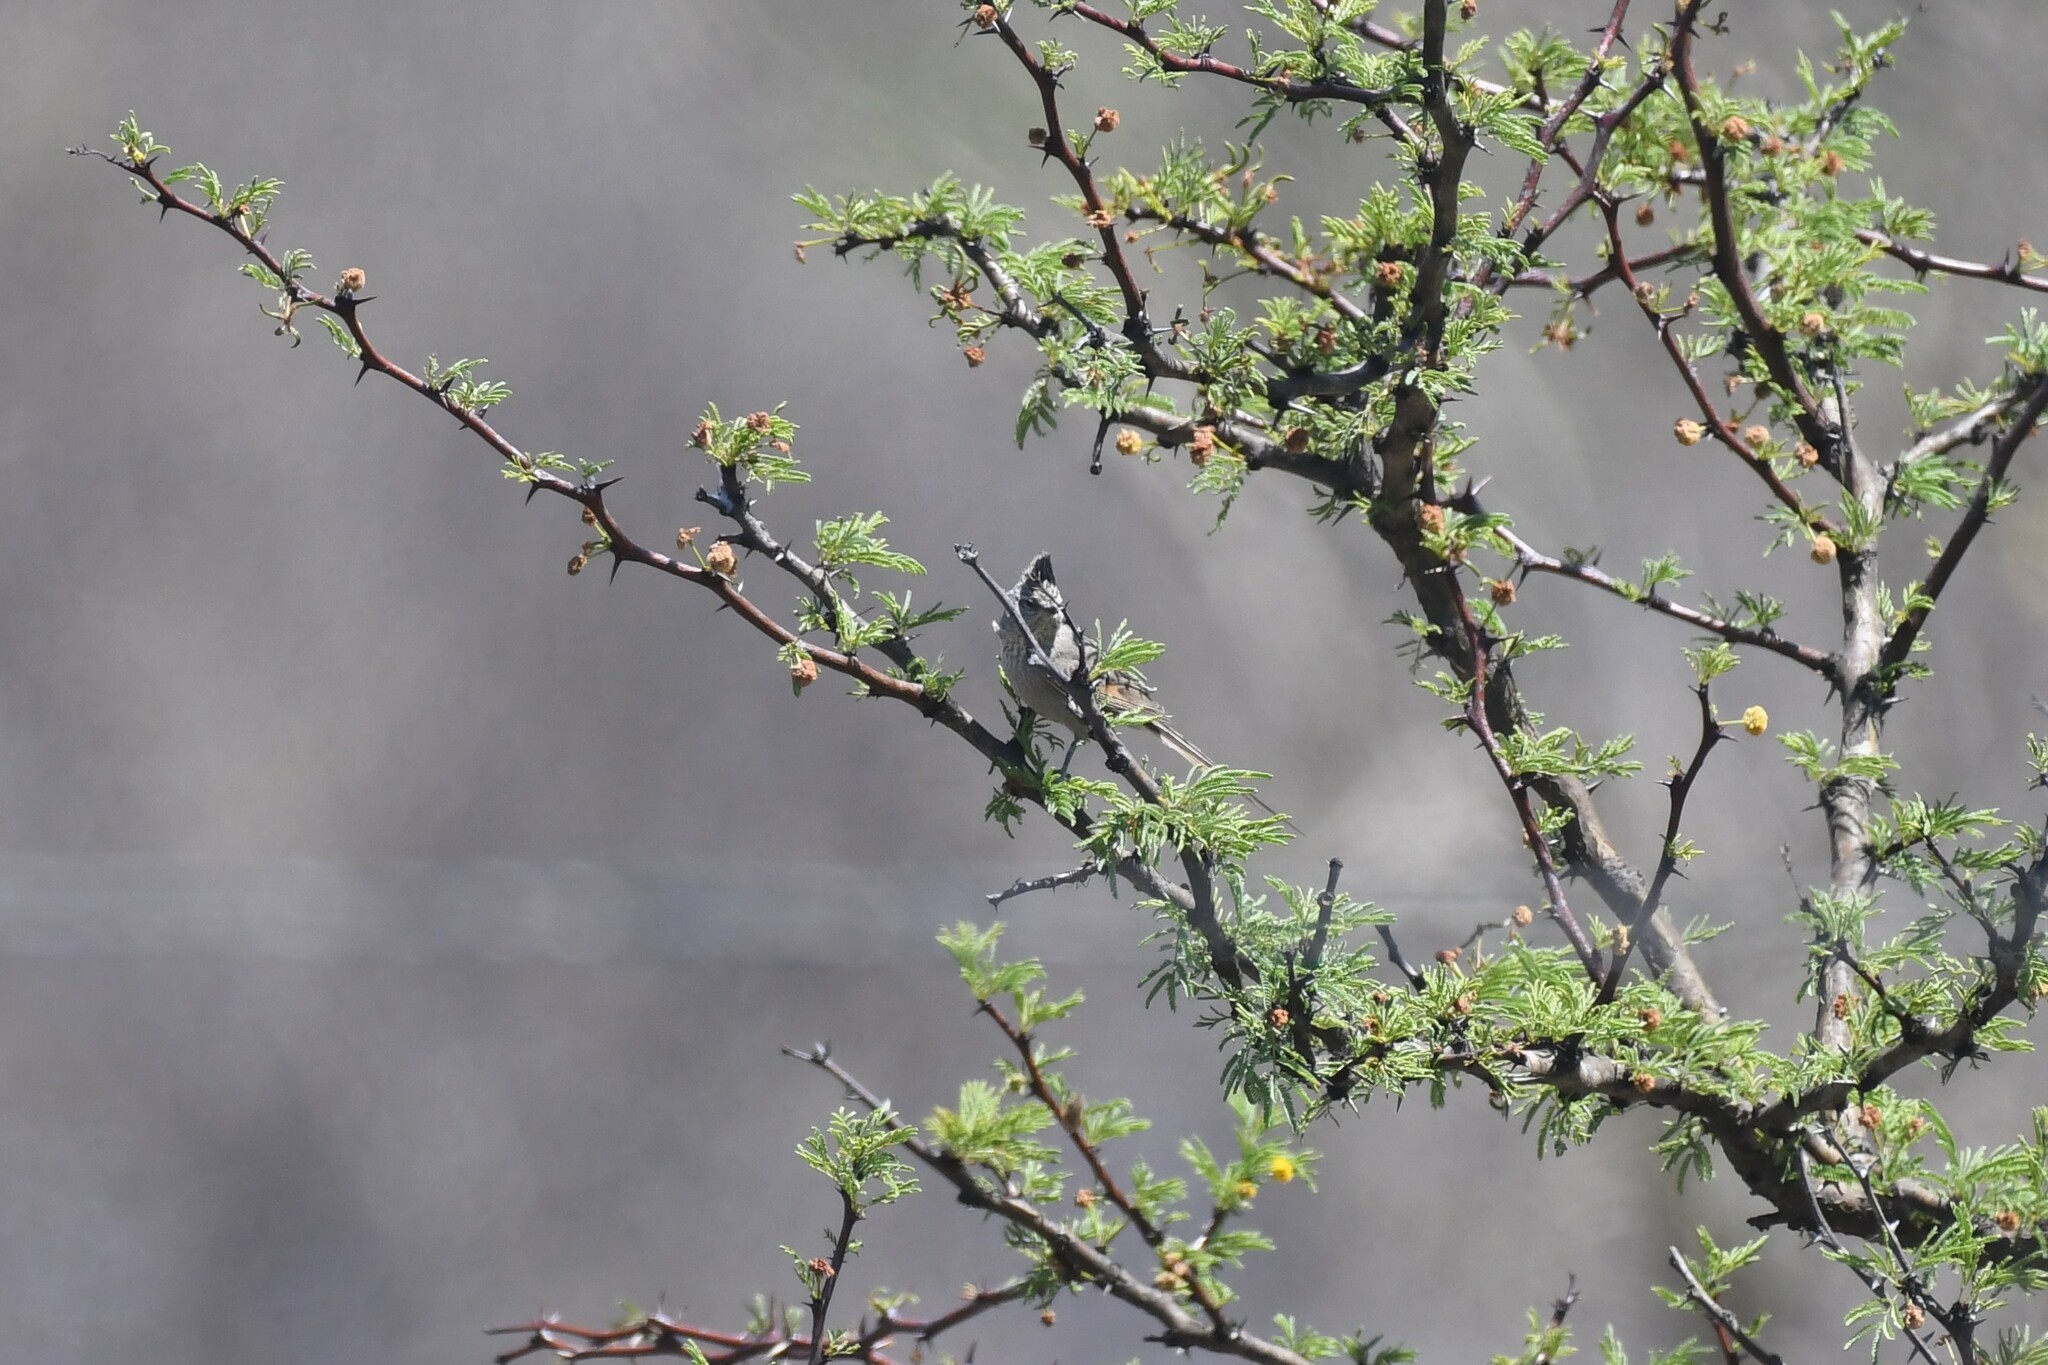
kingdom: Animalia
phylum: Chordata
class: Aves
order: Passeriformes
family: Furnariidae
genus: Leptasthenura
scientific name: Leptasthenura platensis
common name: Tufted tit-spinetail
